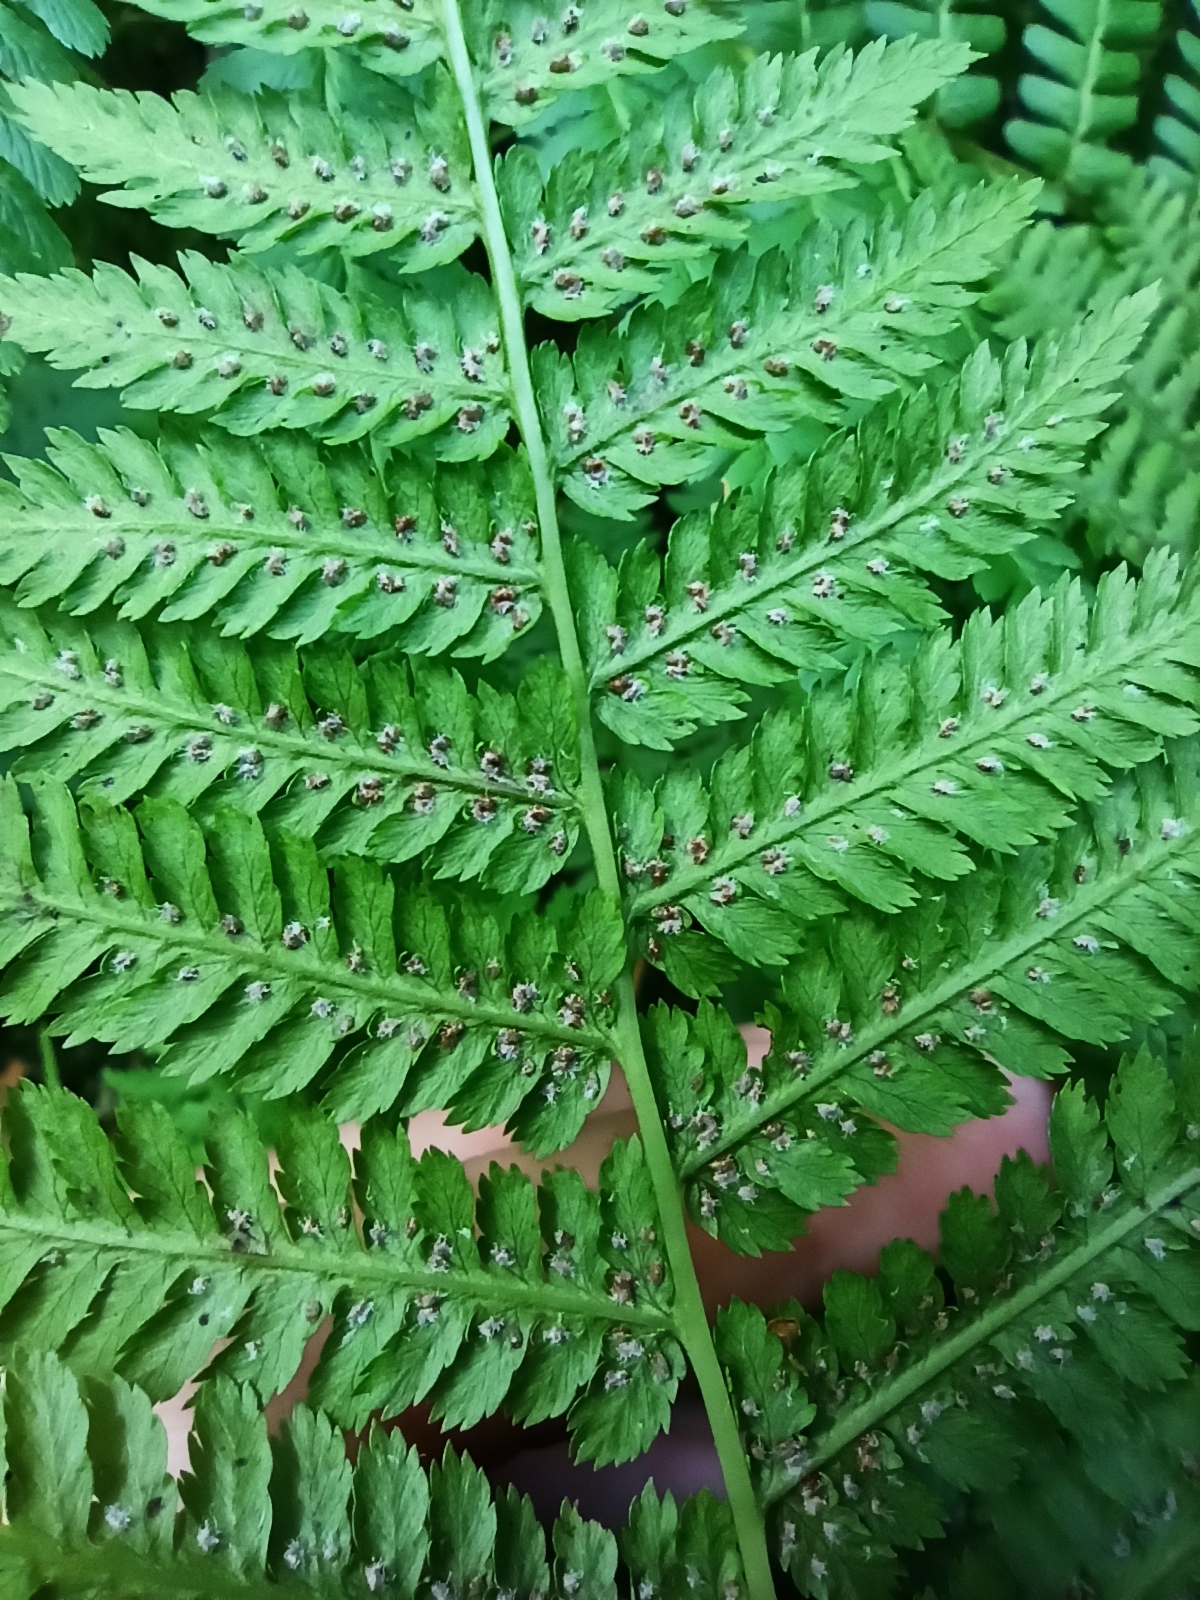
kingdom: Plantae
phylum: Tracheophyta
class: Polypodiopsida
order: Polypodiales
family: Athyriaceae
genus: Athyrium
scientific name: Athyrium filix-femina
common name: Lady fern
